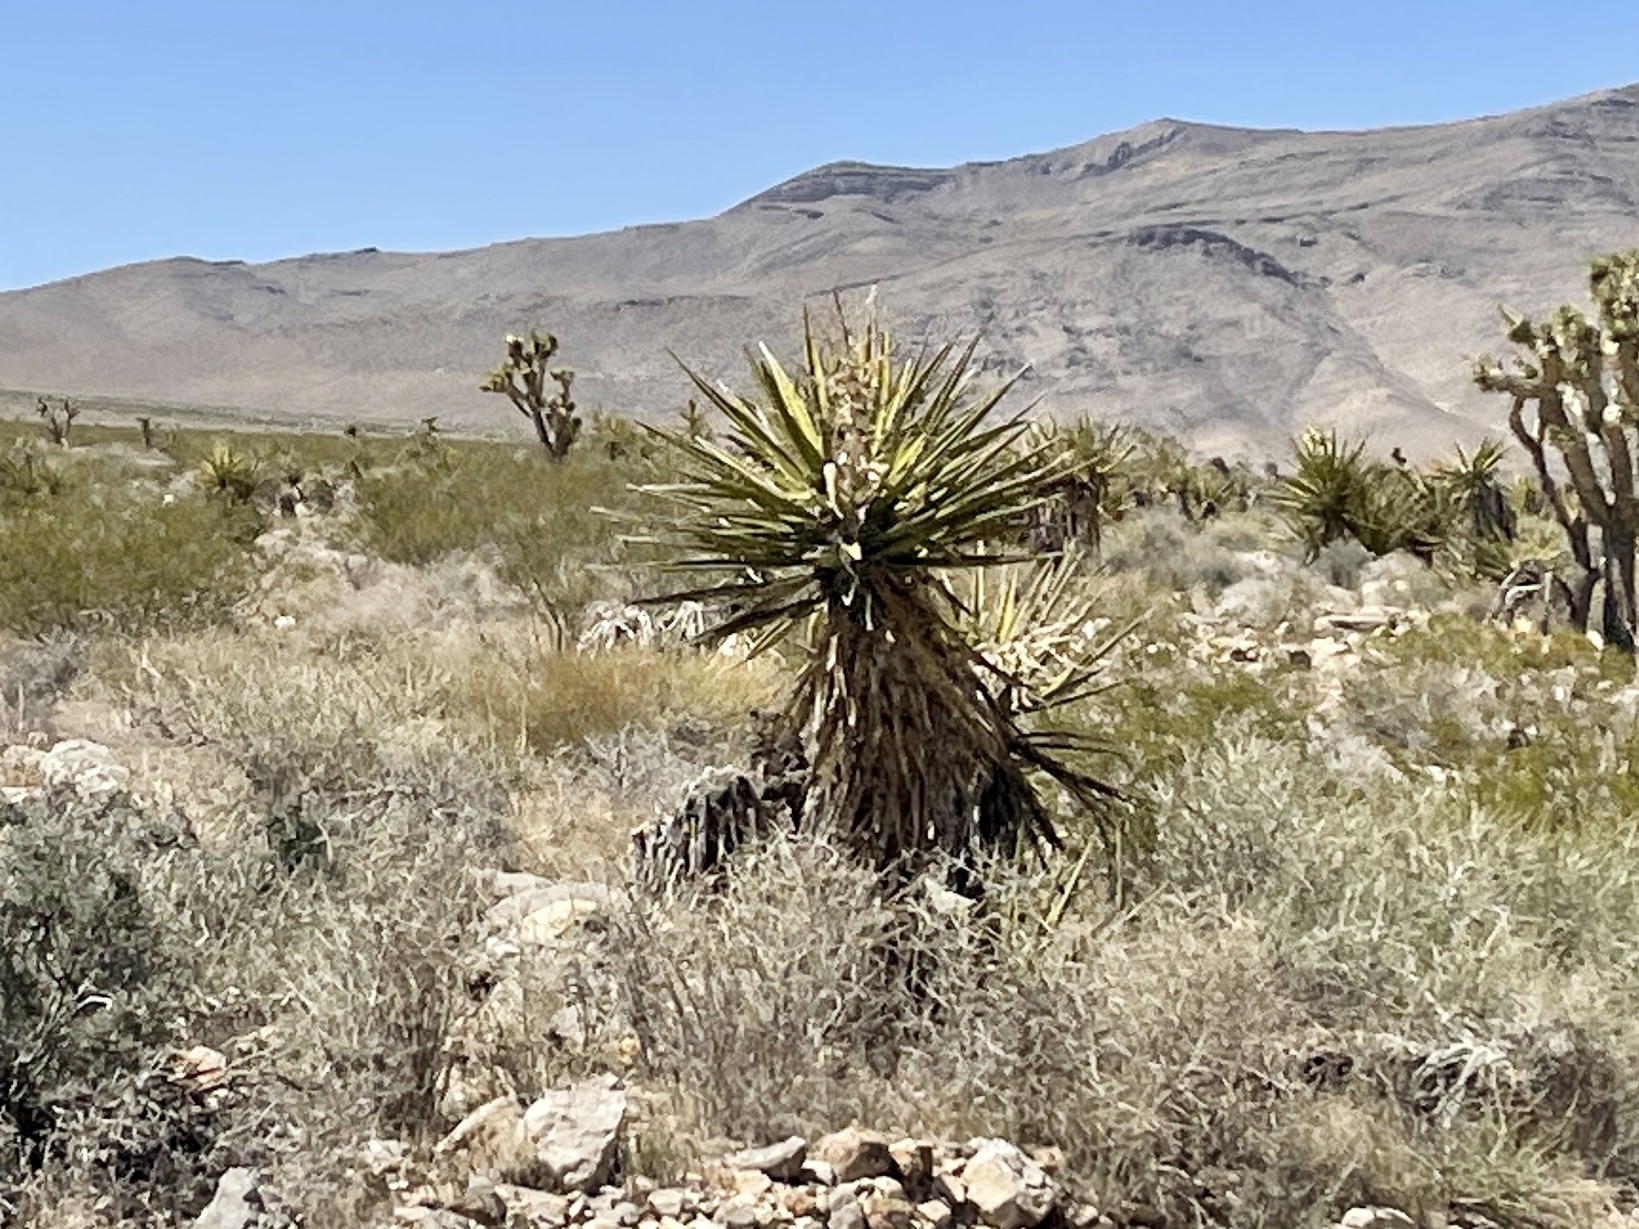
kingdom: Plantae
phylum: Tracheophyta
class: Liliopsida
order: Asparagales
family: Asparagaceae
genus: Yucca
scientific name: Yucca schidigera
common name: Mojave yucca
